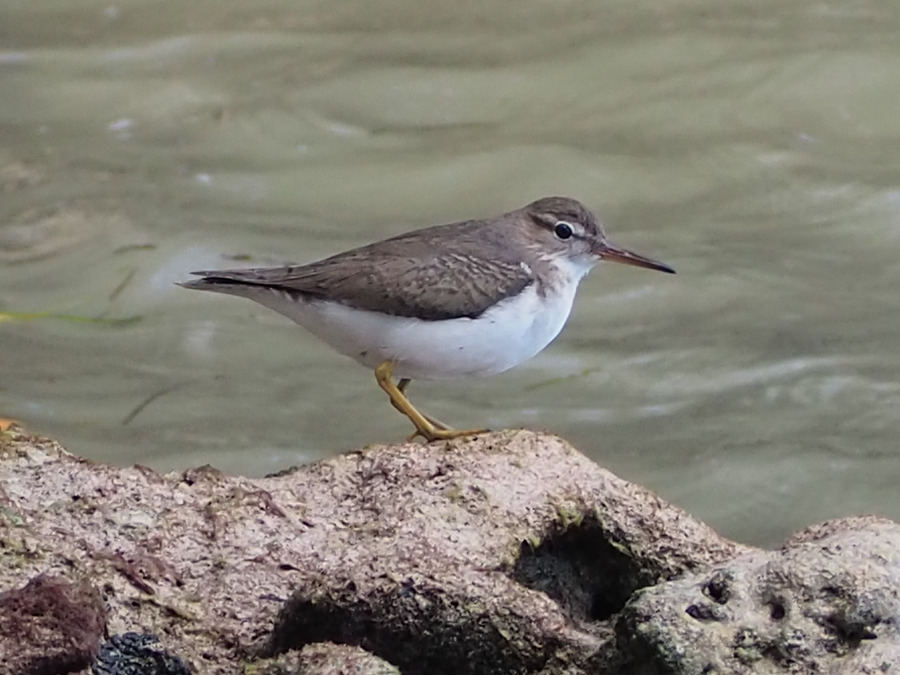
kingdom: Animalia
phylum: Chordata
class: Aves
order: Charadriiformes
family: Scolopacidae
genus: Actitis
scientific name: Actitis macularius
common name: Spotted sandpiper
